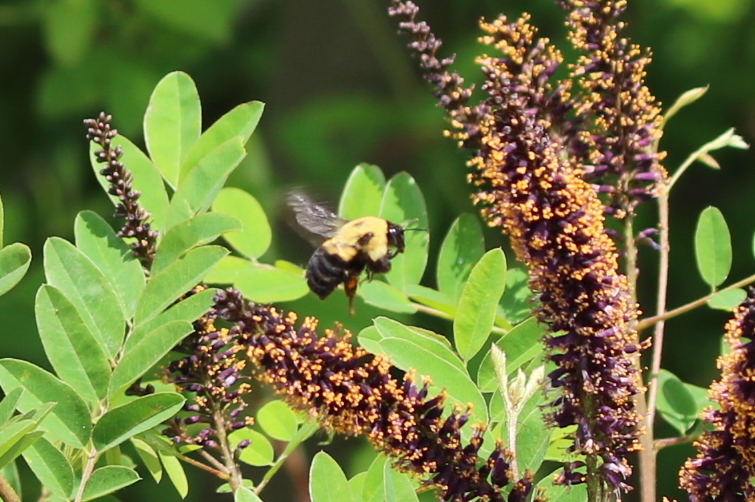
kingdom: Animalia
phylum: Arthropoda
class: Insecta
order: Hymenoptera
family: Apidae
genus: Bombus
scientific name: Bombus griseocollis
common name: Brown-belted bumble bee
